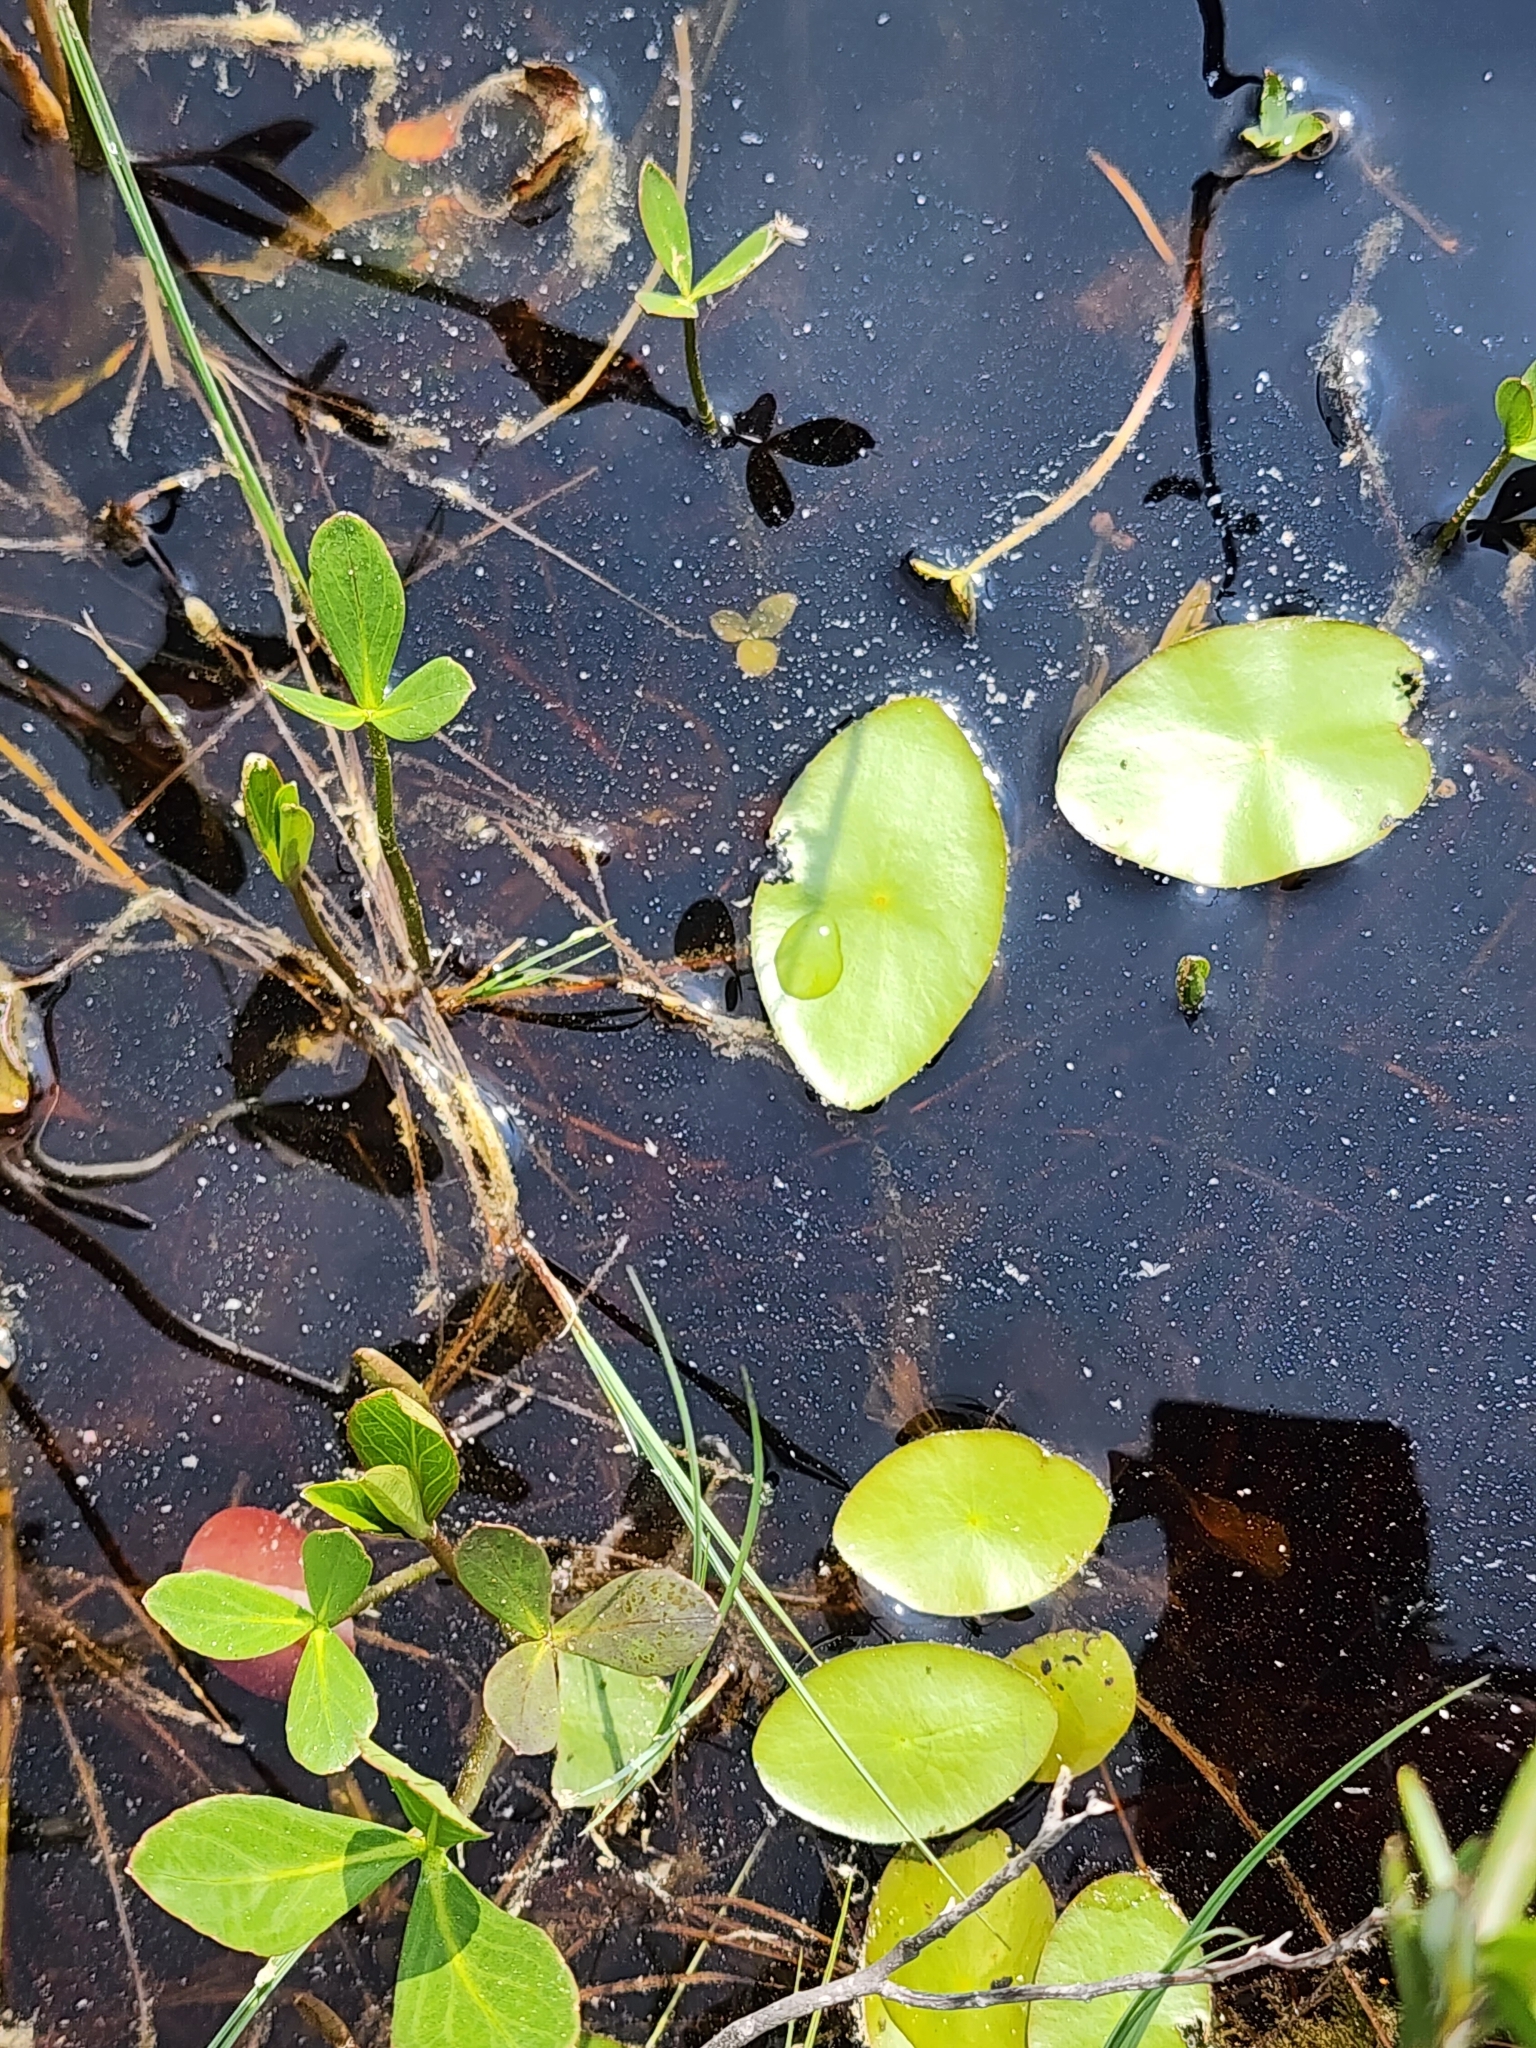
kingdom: Plantae
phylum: Tracheophyta
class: Magnoliopsida
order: Nymphaeales
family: Cabombaceae
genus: Brasenia
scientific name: Brasenia schreberi
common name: Water-shield
